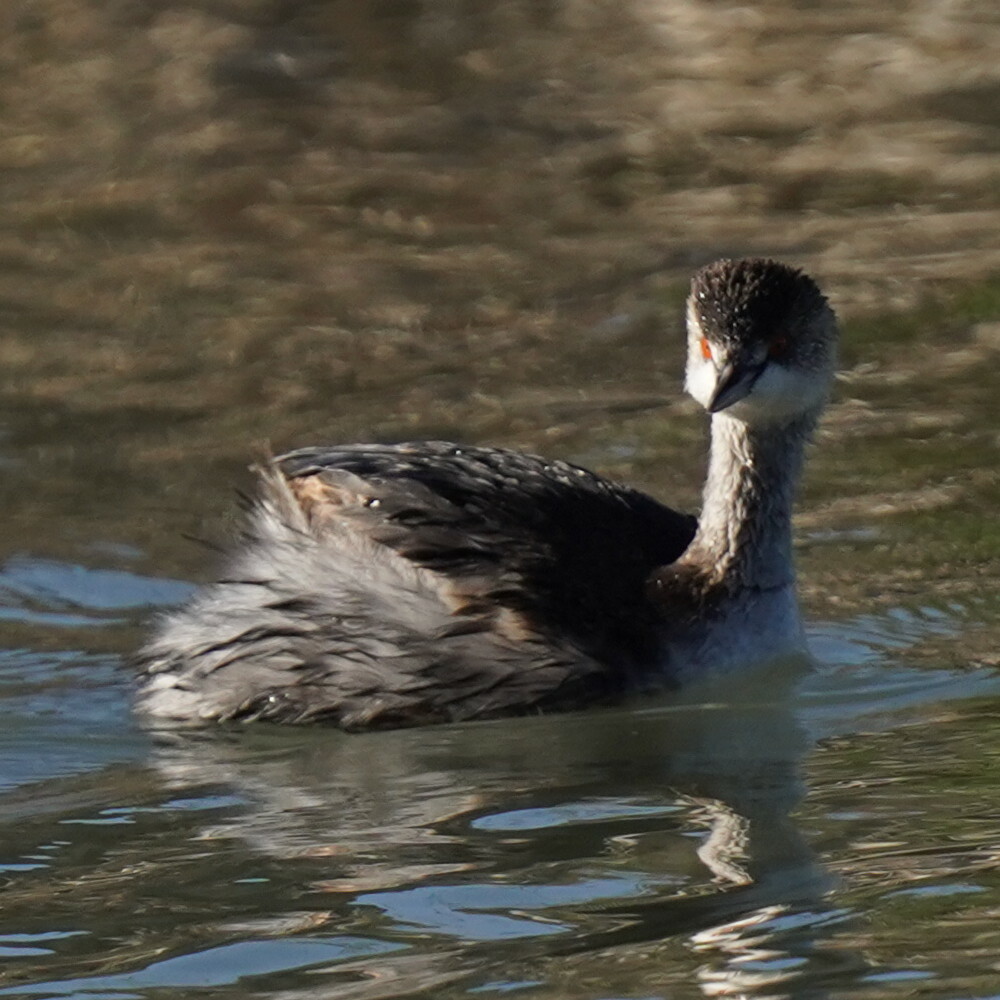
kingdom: Animalia
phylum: Chordata
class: Aves
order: Podicipediformes
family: Podicipedidae
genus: Podiceps
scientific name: Podiceps nigricollis
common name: Black-necked grebe
